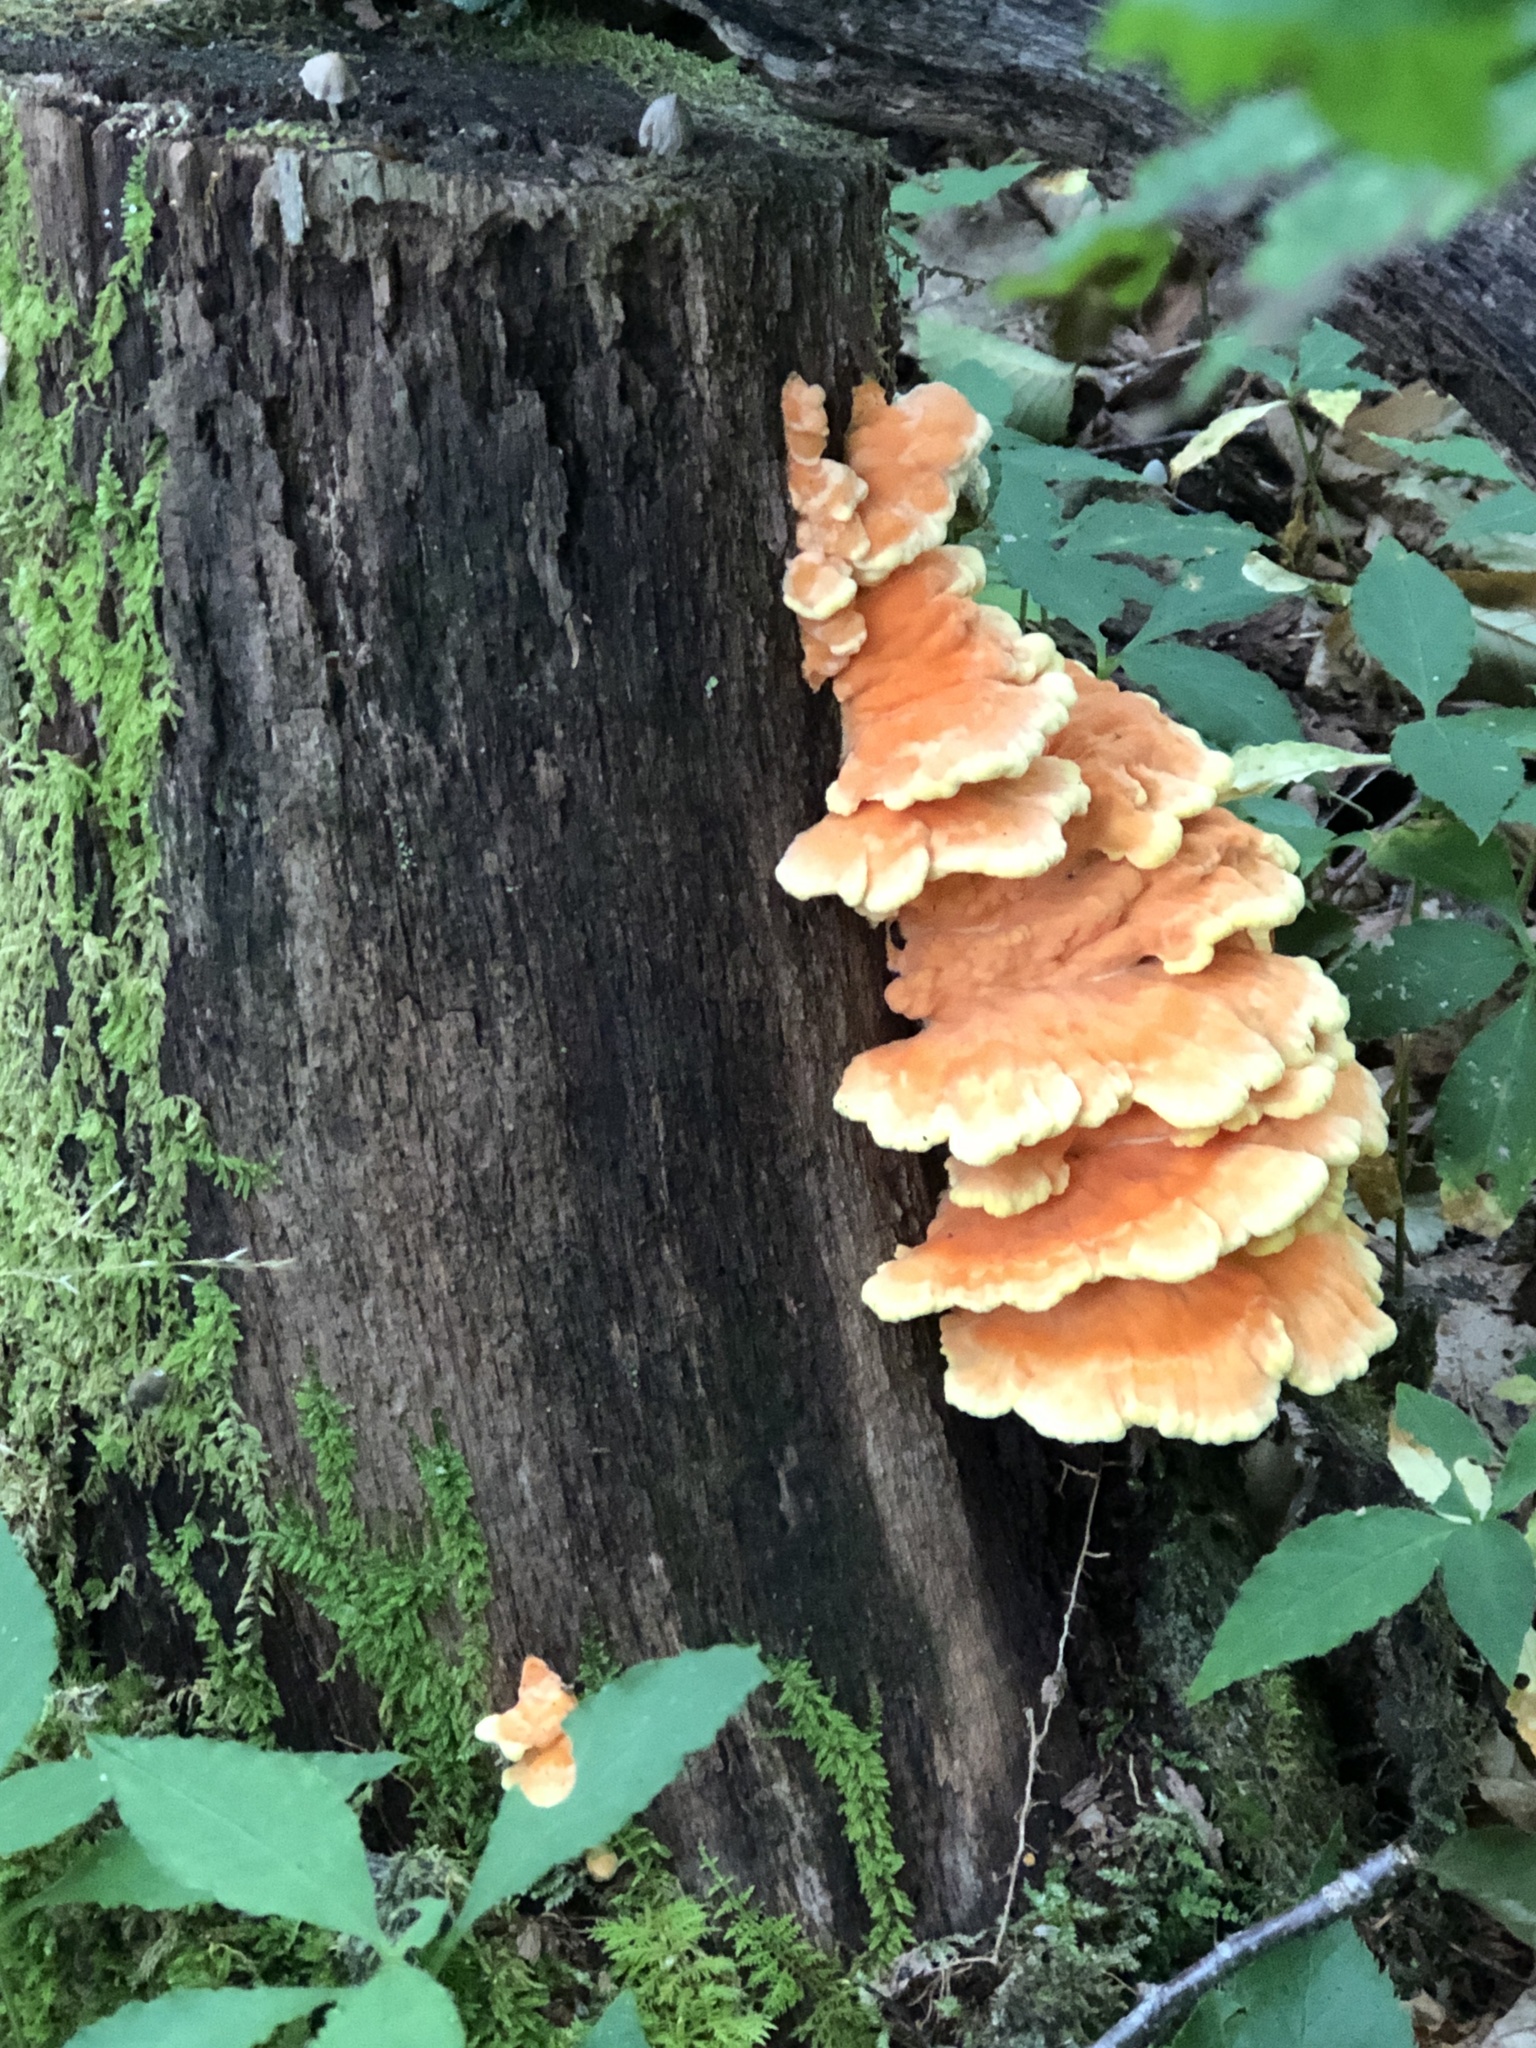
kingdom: Fungi
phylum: Basidiomycota
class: Agaricomycetes
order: Polyporales
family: Laetiporaceae
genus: Laetiporus
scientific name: Laetiporus sulphureus
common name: Chicken of the woods
